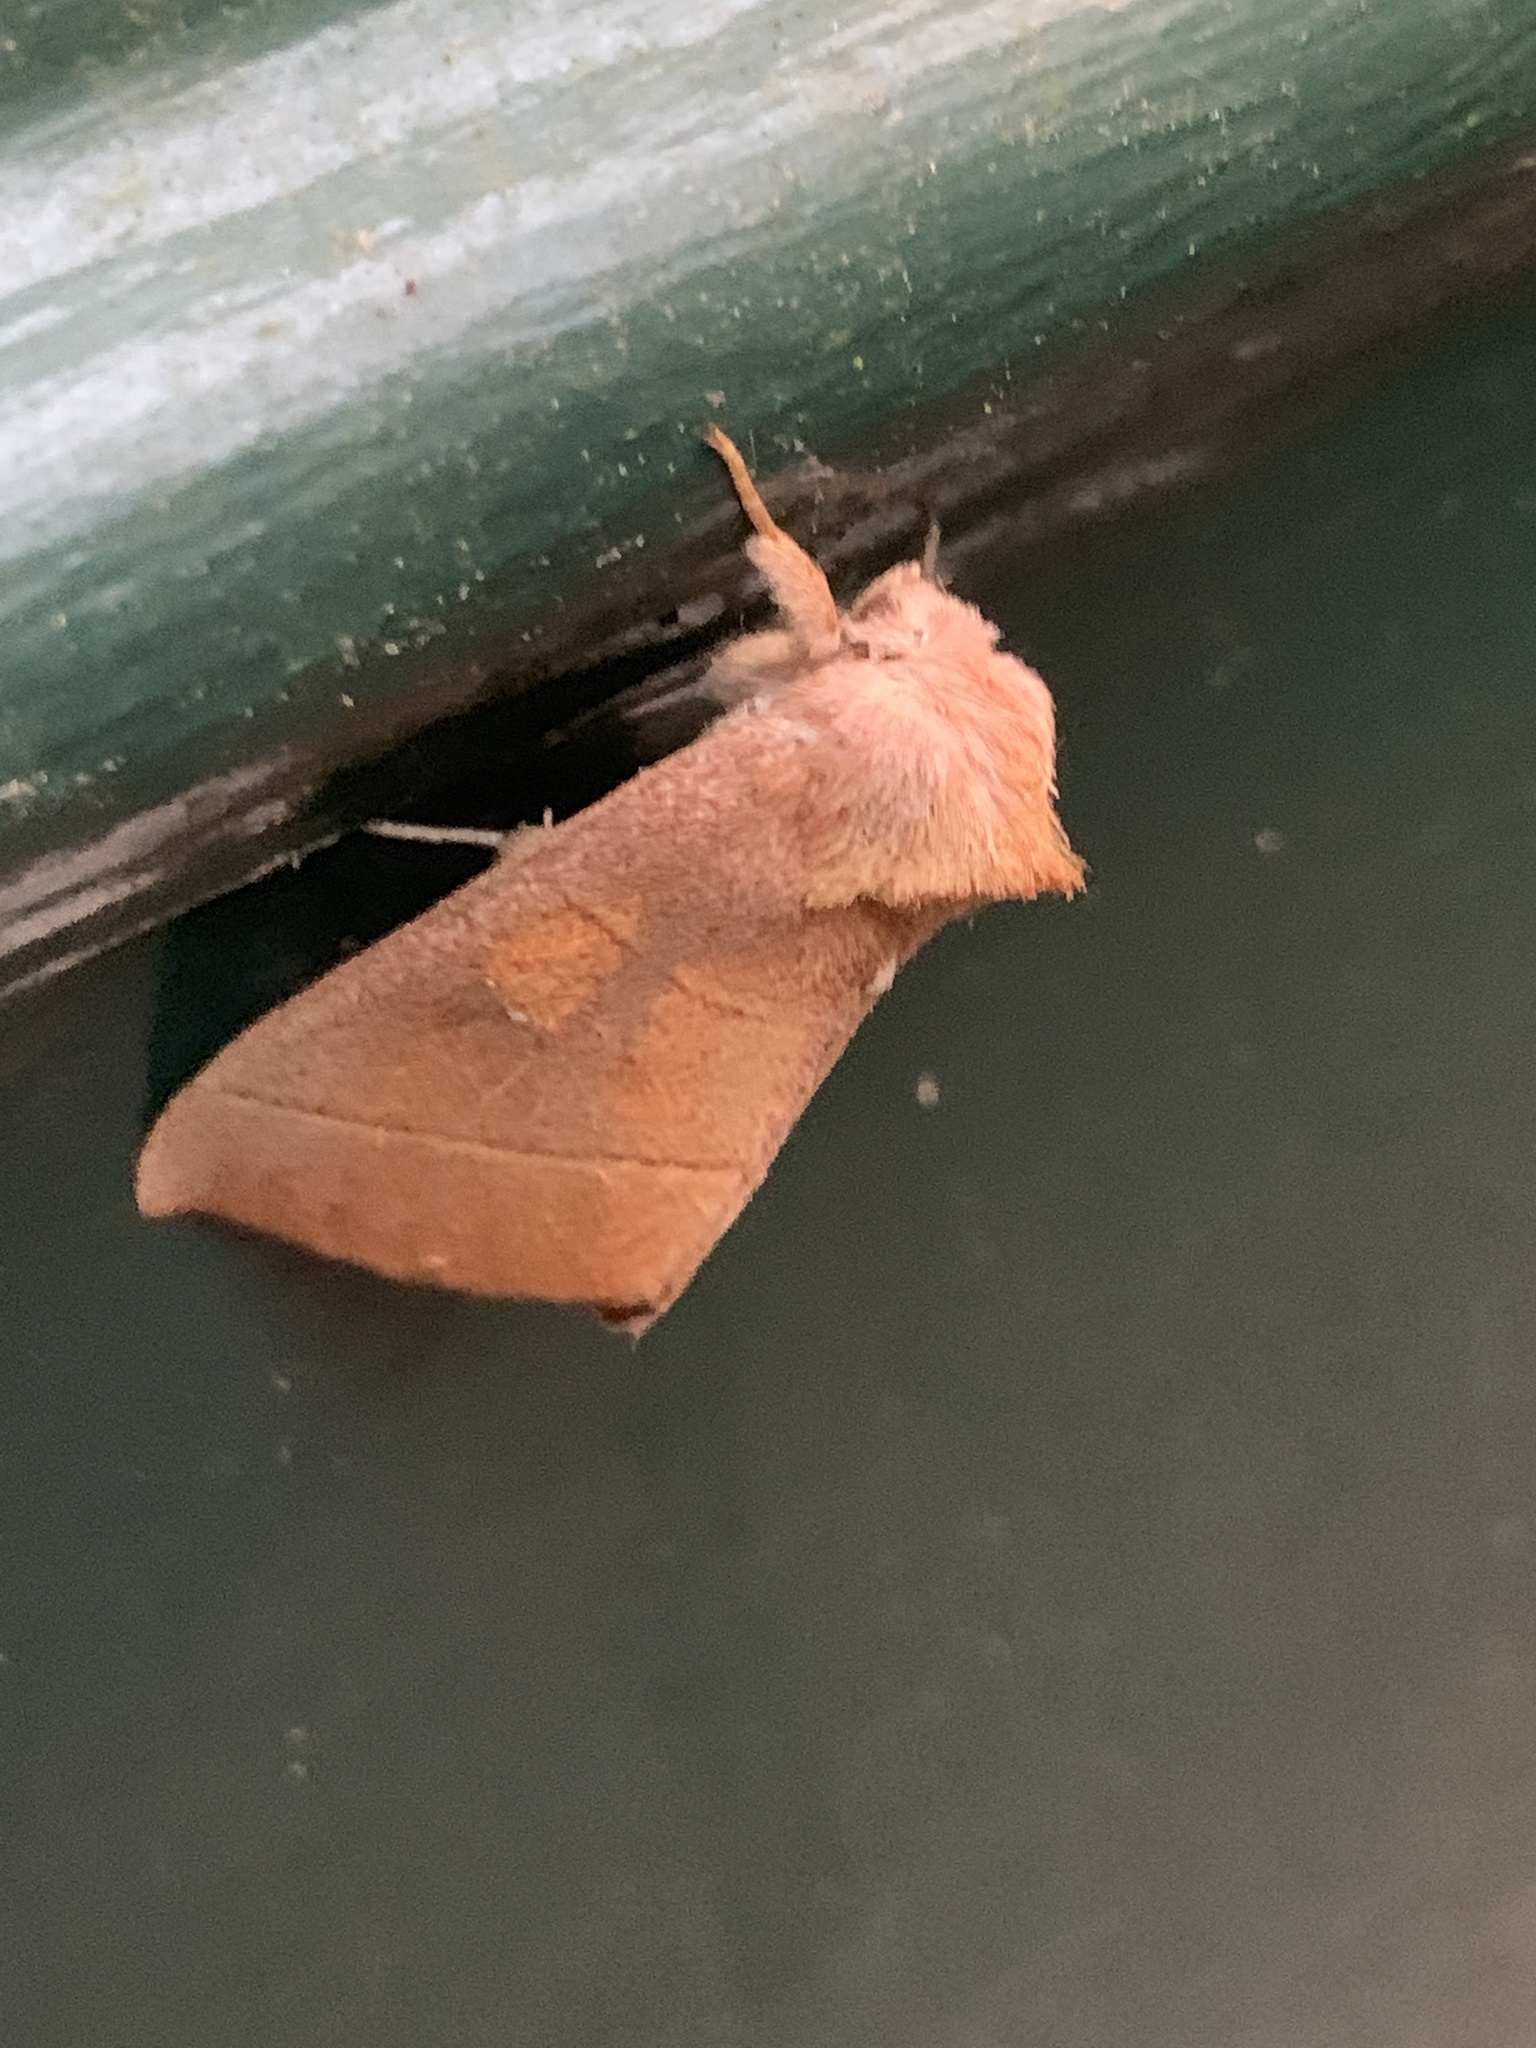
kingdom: Animalia
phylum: Arthropoda
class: Insecta
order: Lepidoptera
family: Notodontidae
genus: Nadata
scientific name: Nadata gibbosa
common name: White-dotted prominent
